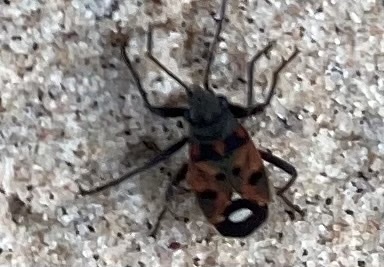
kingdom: Animalia
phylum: Arthropoda
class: Insecta
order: Hemiptera
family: Lygaeidae
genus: Lygaeus
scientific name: Lygaeus alboornatus
